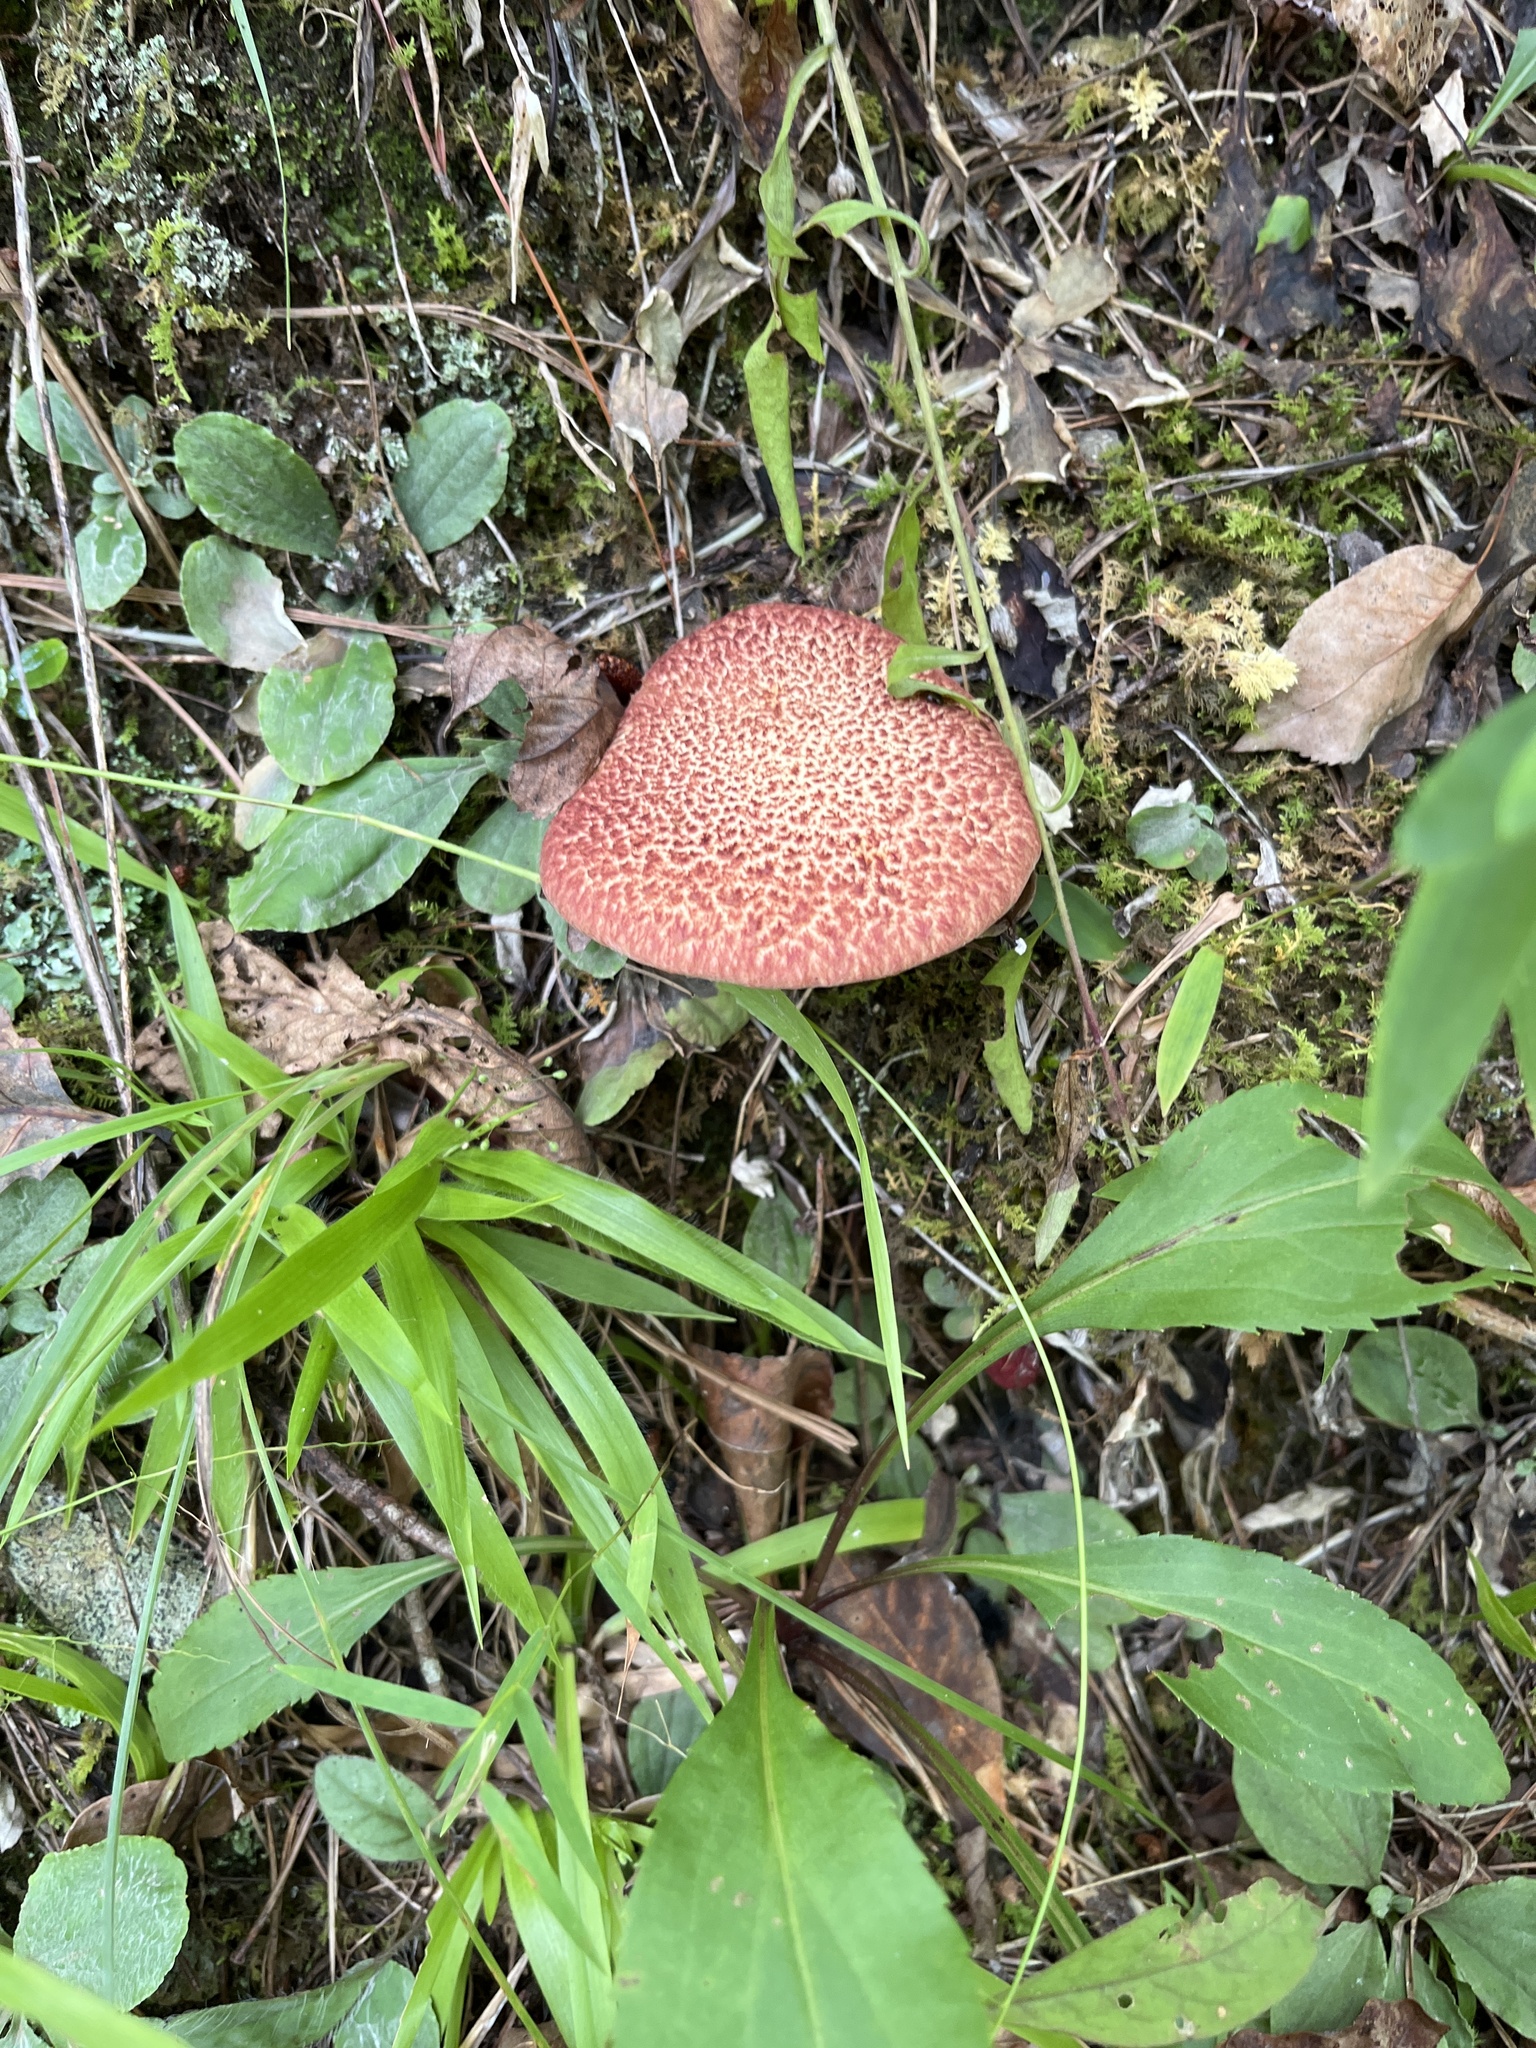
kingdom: Fungi
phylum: Basidiomycota
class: Agaricomycetes
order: Boletales
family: Suillaceae
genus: Suillus
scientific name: Suillus spraguei
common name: Painted suillus
